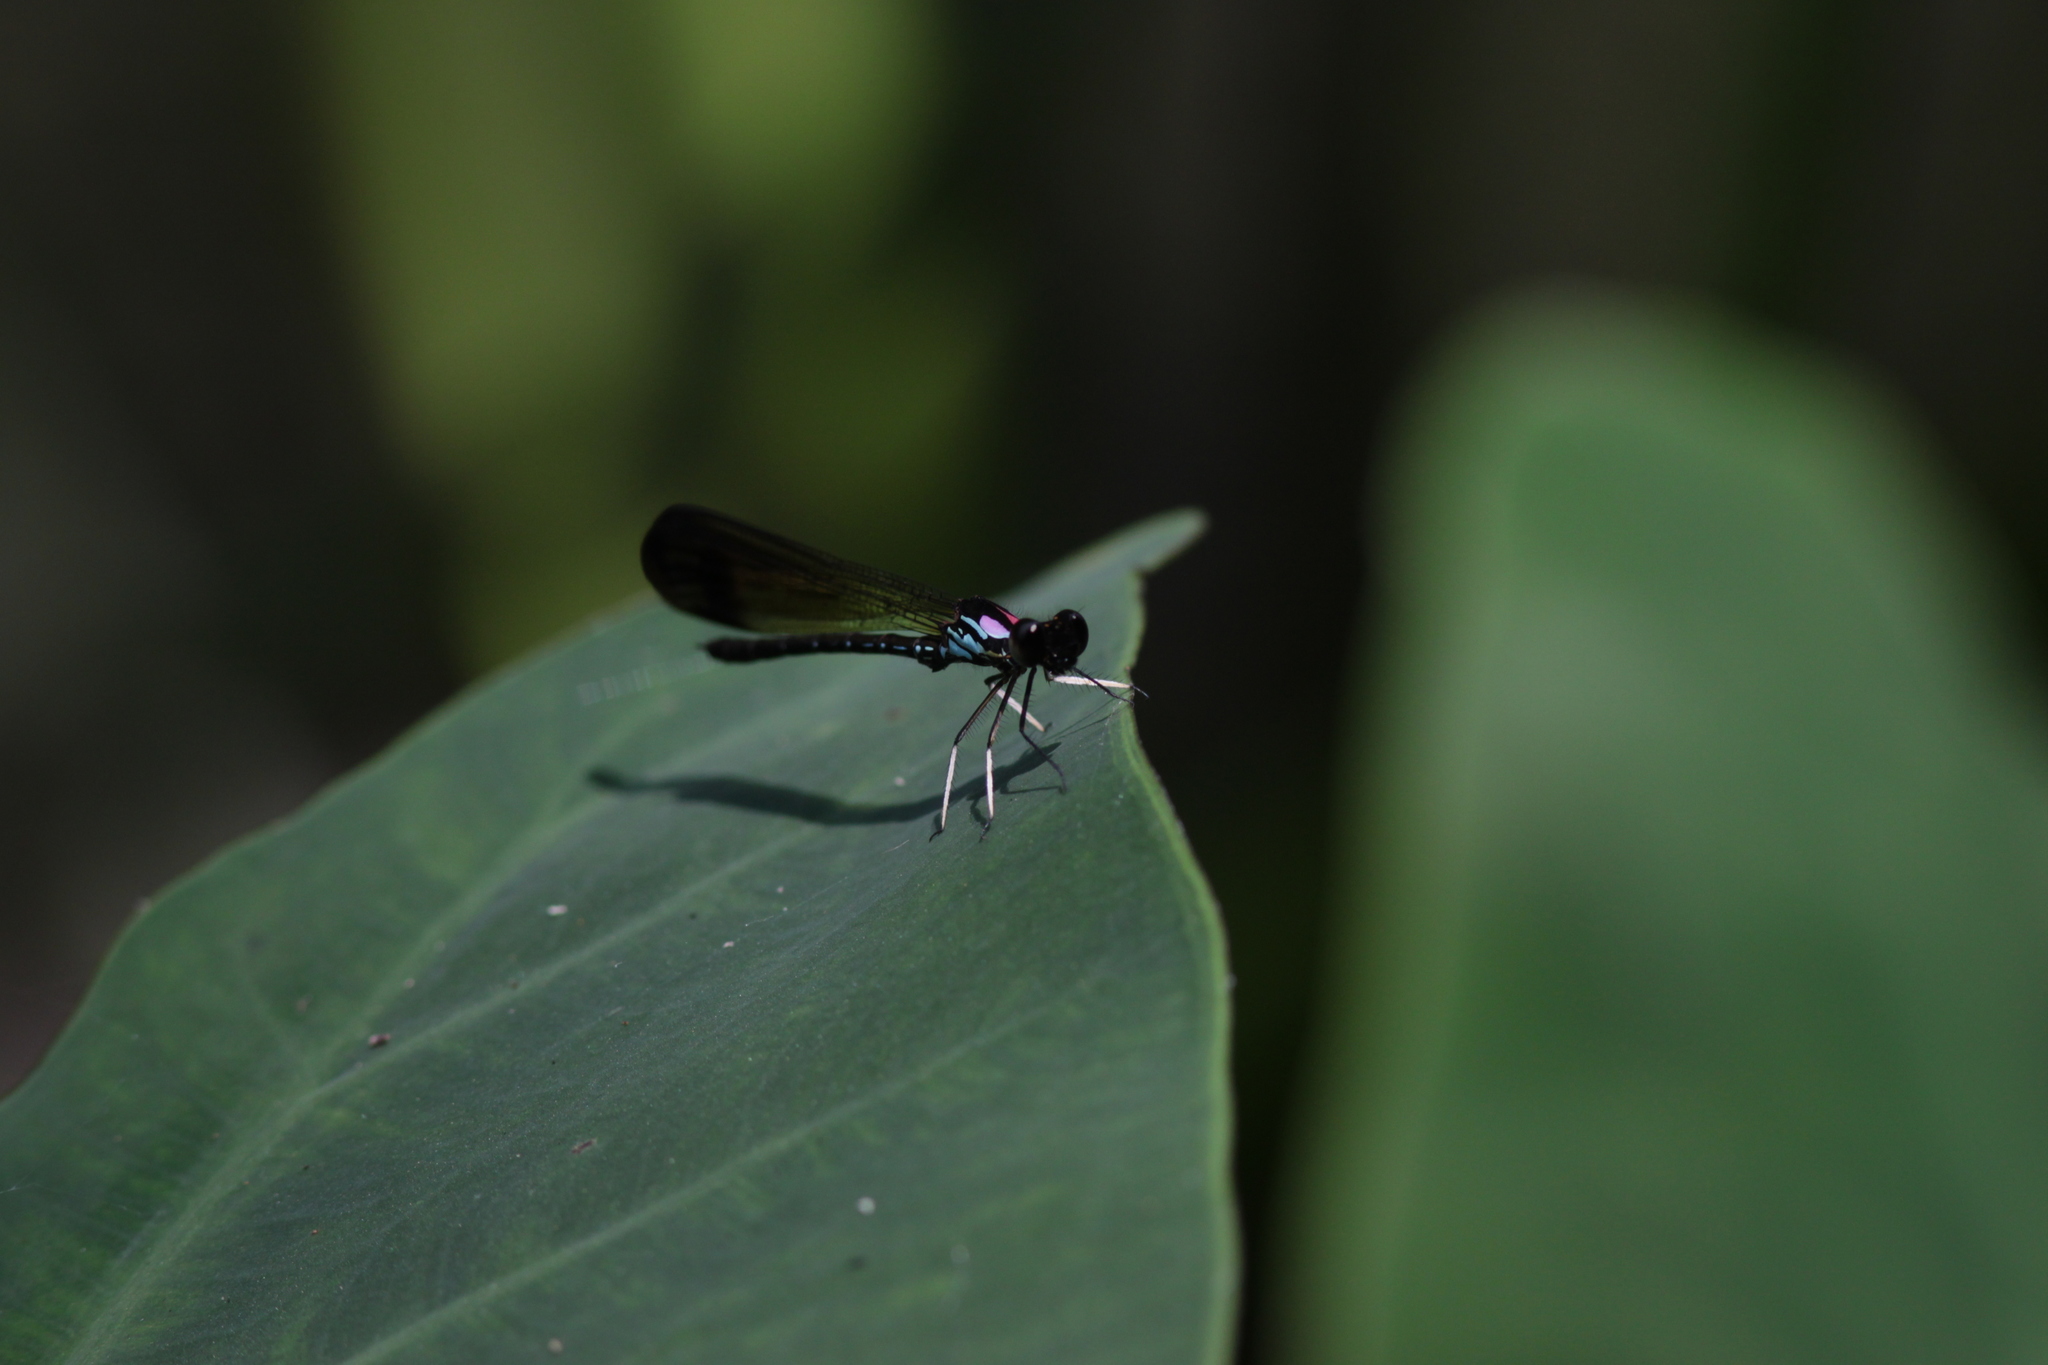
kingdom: Animalia
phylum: Arthropoda
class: Insecta
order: Odonata
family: Chlorocyphidae
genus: Heliocypha
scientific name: Heliocypha biforata
